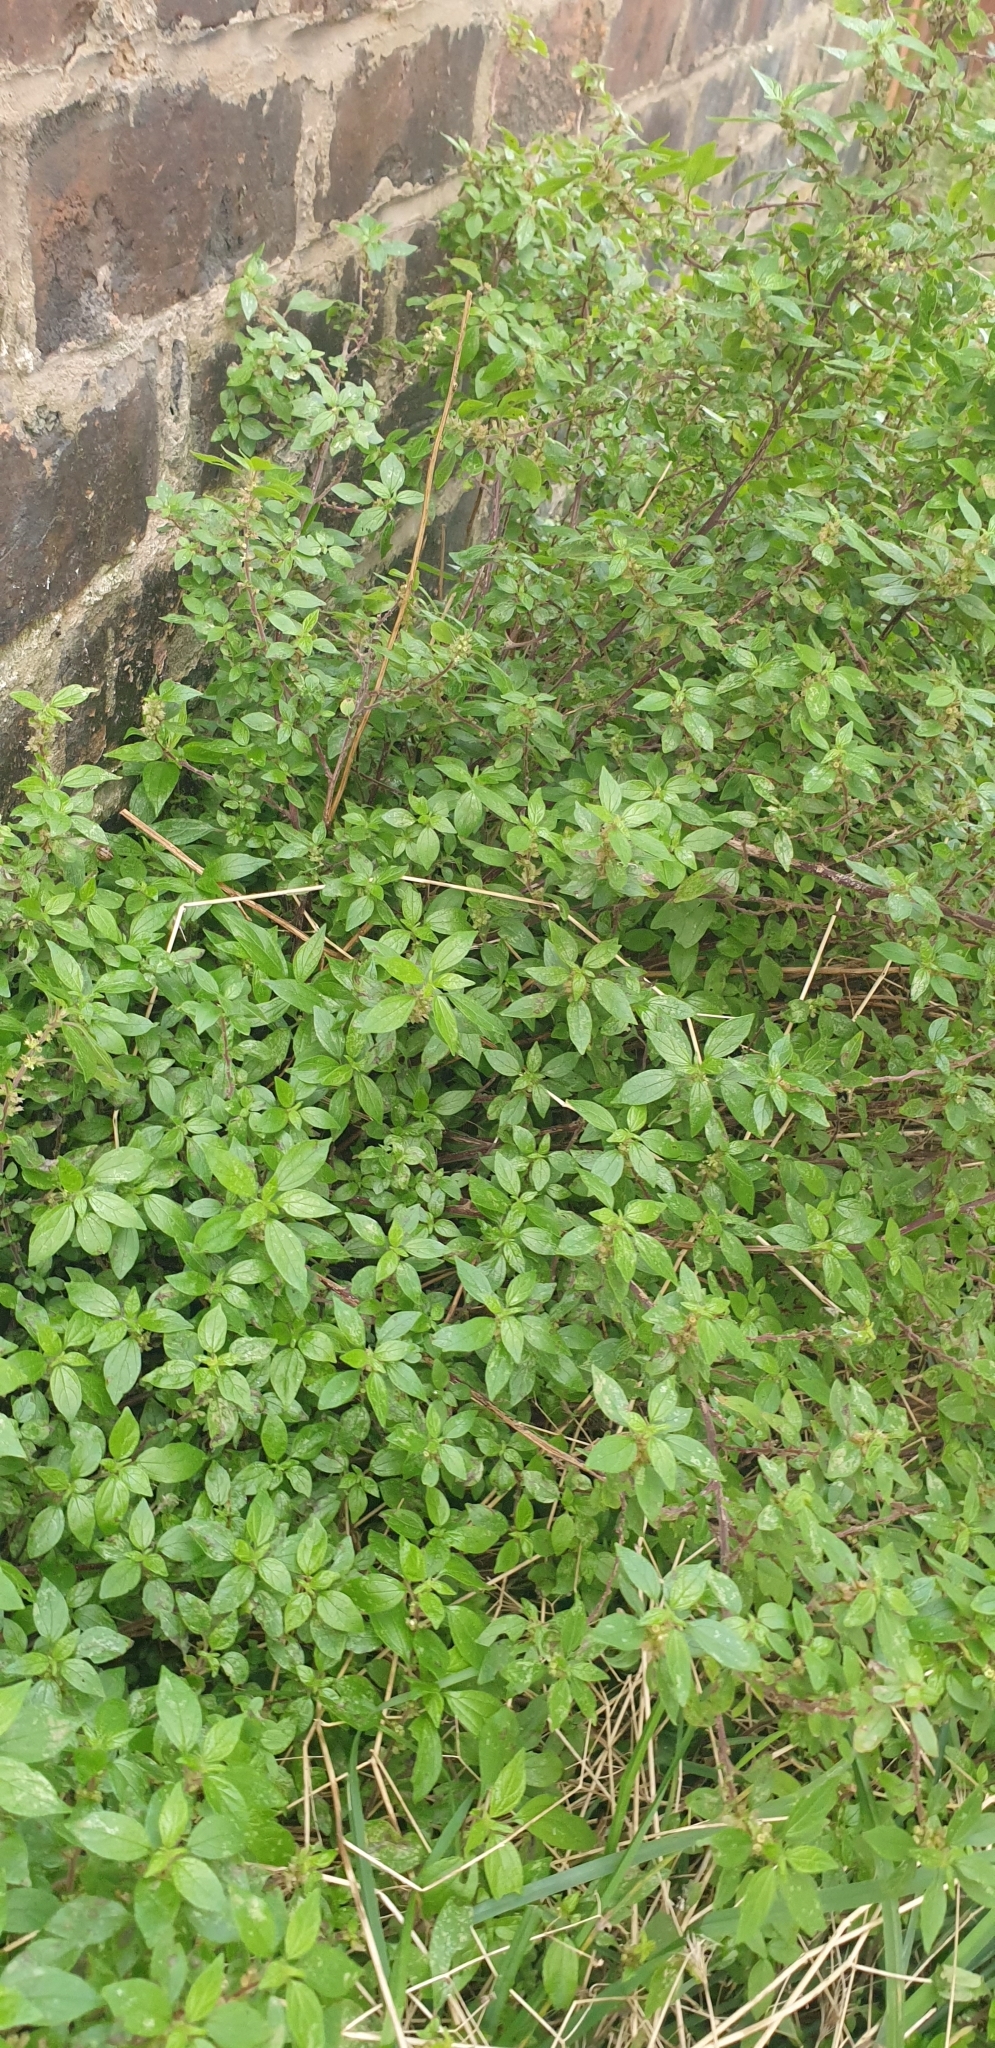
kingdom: Plantae
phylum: Tracheophyta
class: Magnoliopsida
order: Rosales
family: Urticaceae
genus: Parietaria
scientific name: Parietaria judaica
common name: Pellitory-of-the-wall
